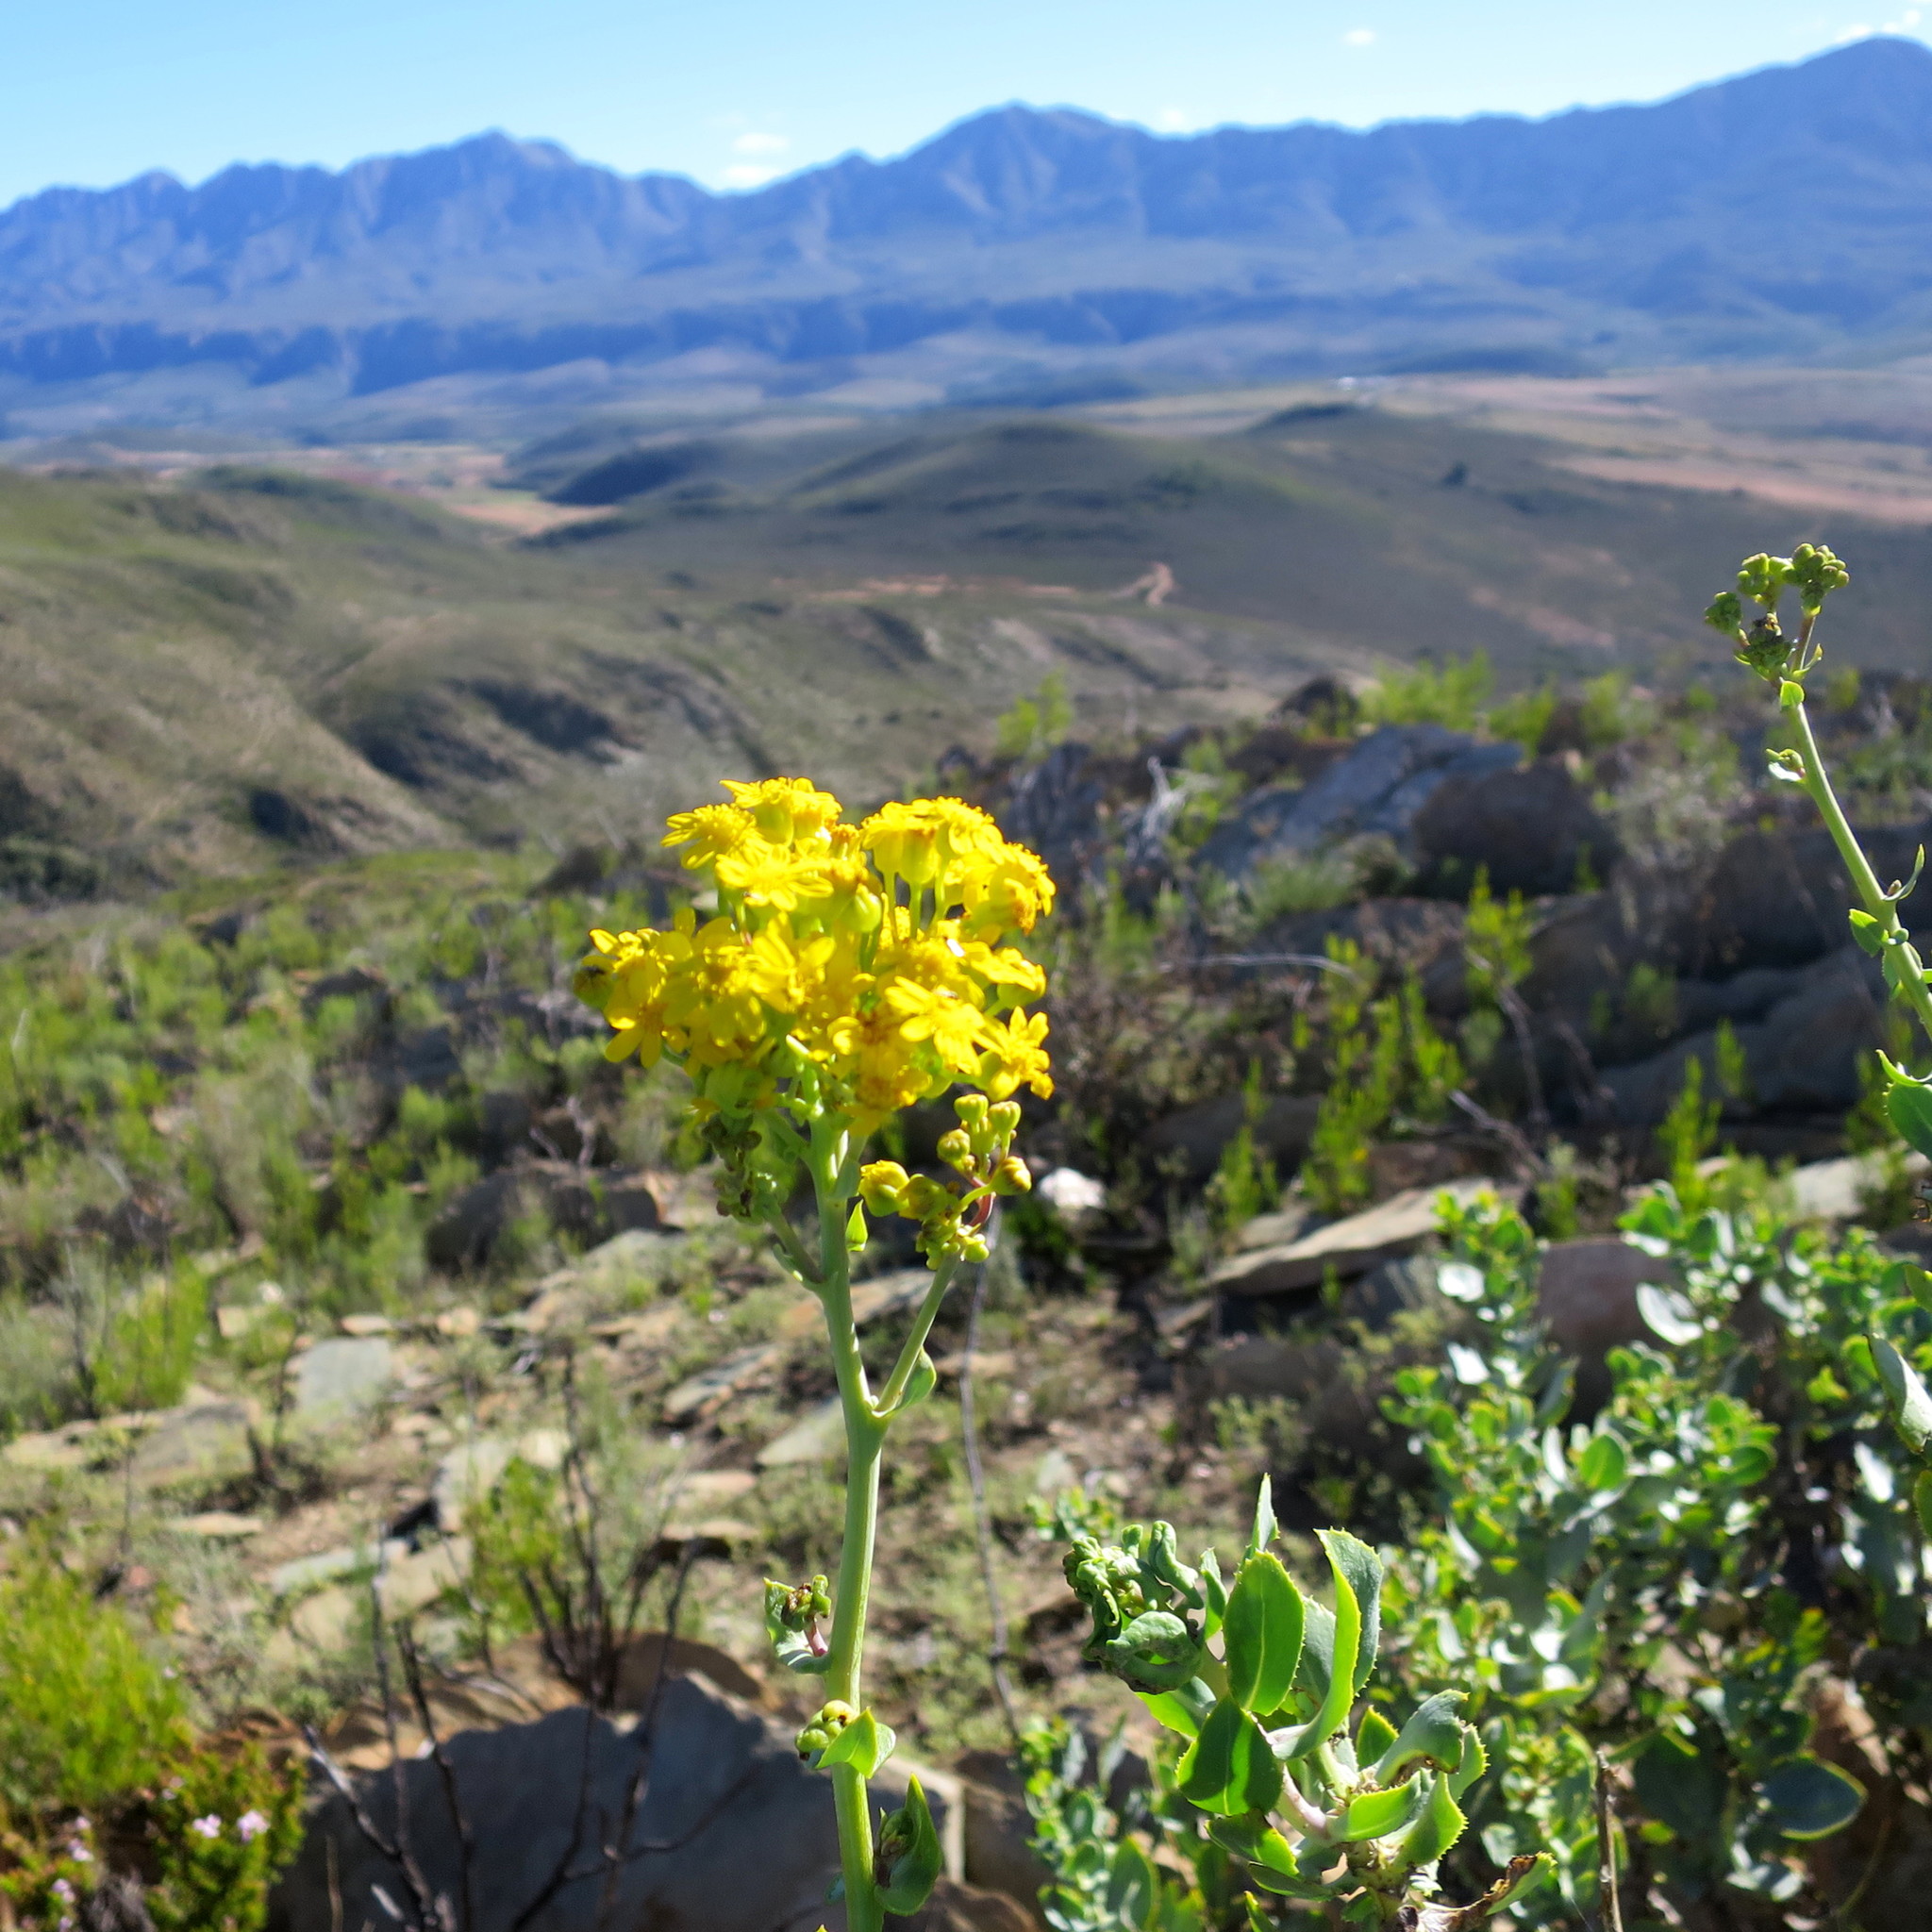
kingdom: Plantae
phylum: Tracheophyta
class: Magnoliopsida
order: Asterales
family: Asteraceae
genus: Othonna
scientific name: Othonna parviflora
